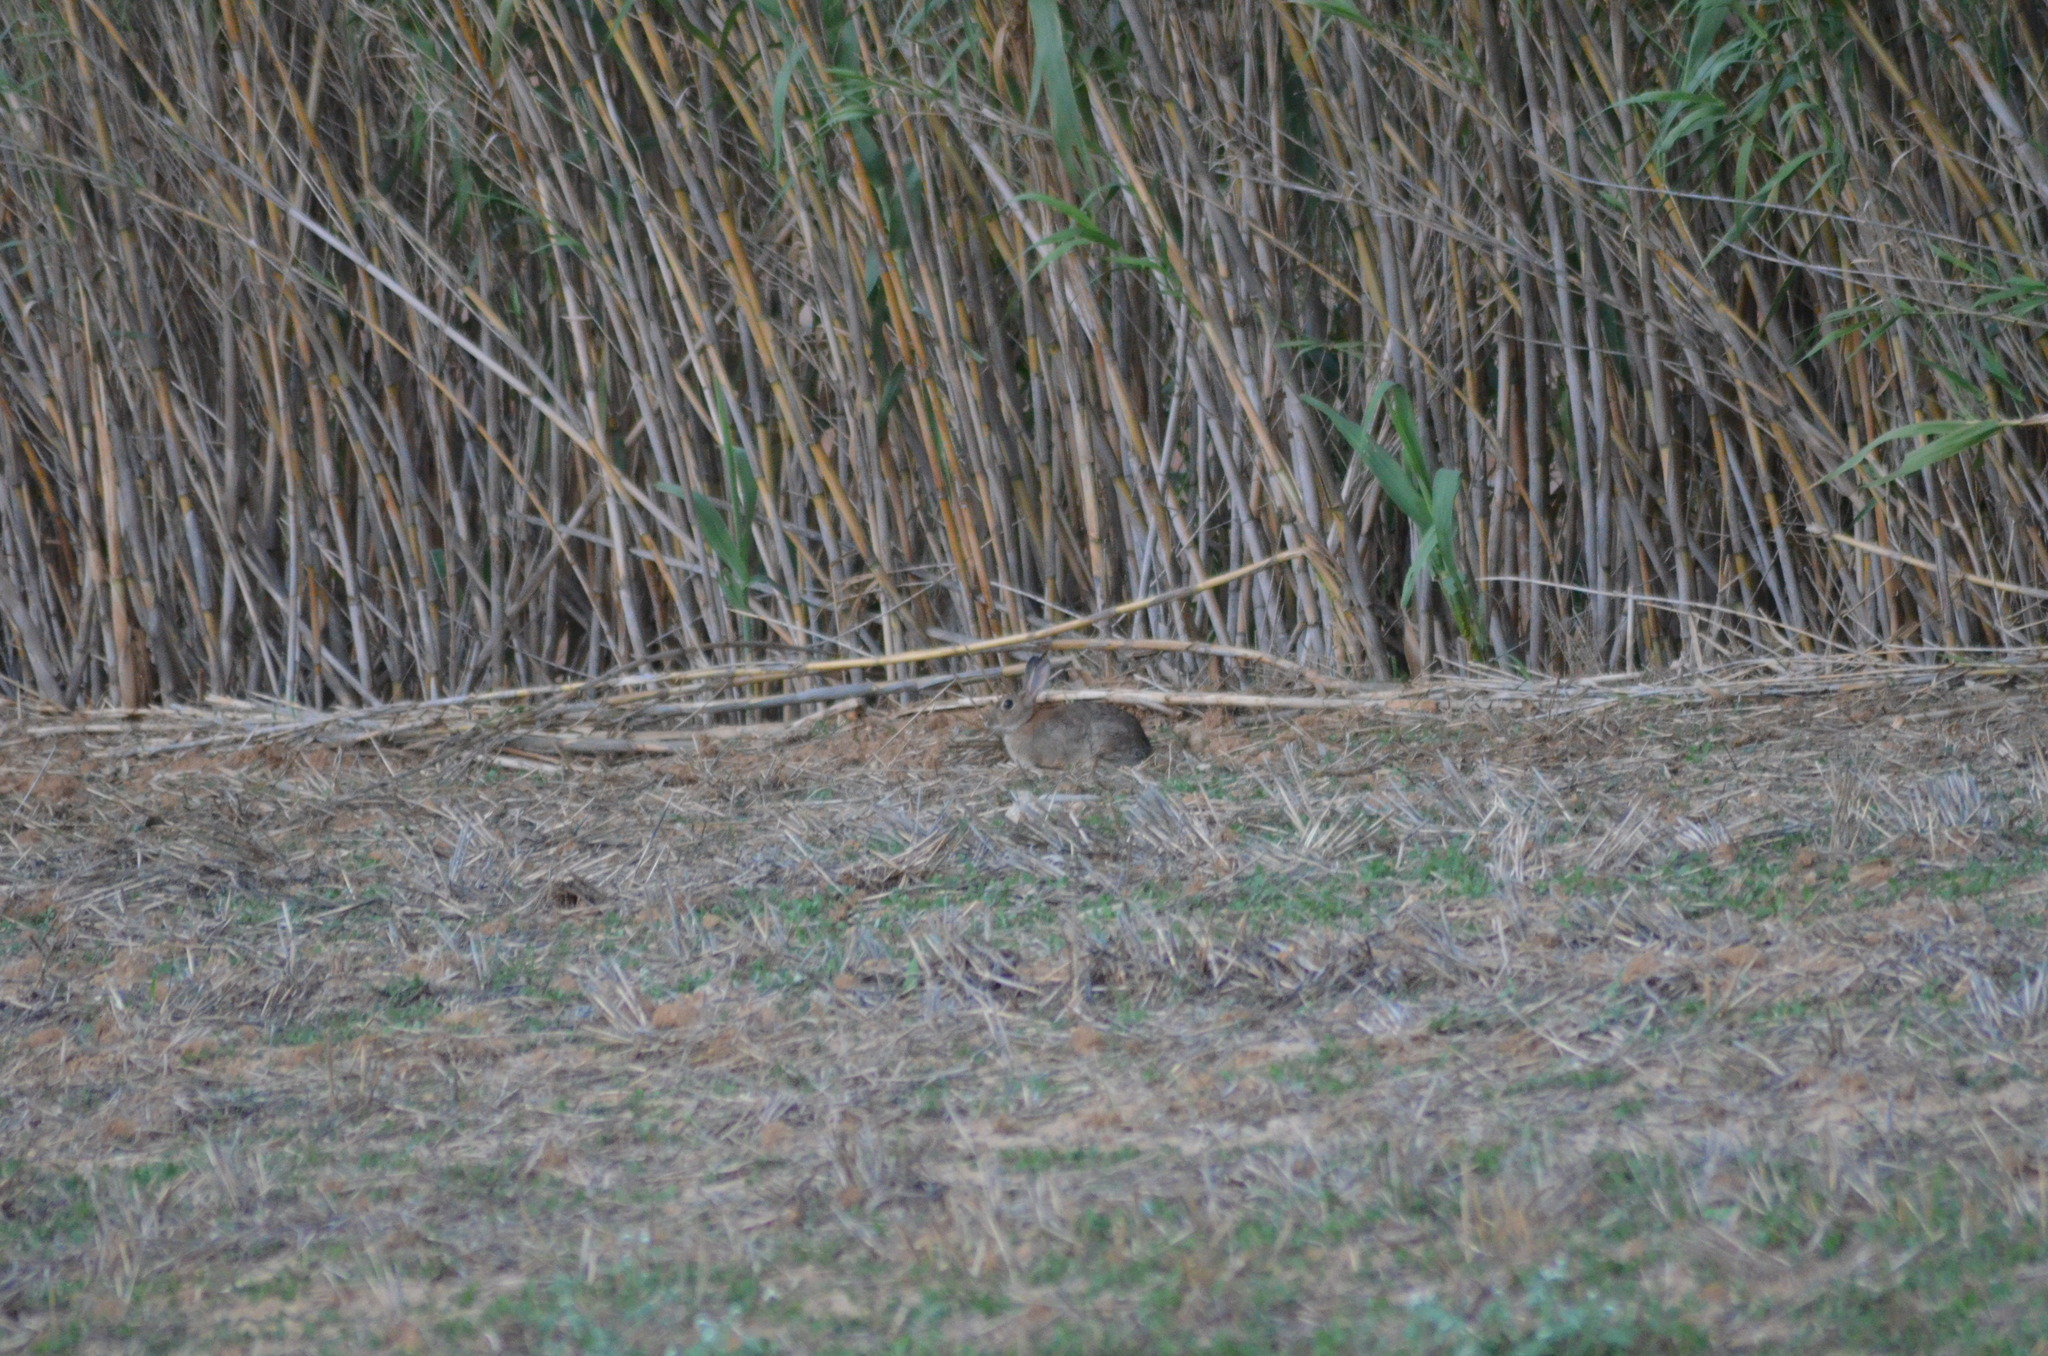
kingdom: Animalia
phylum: Chordata
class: Mammalia
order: Lagomorpha
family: Leporidae
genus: Oryctolagus
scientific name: Oryctolagus cuniculus
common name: European rabbit
